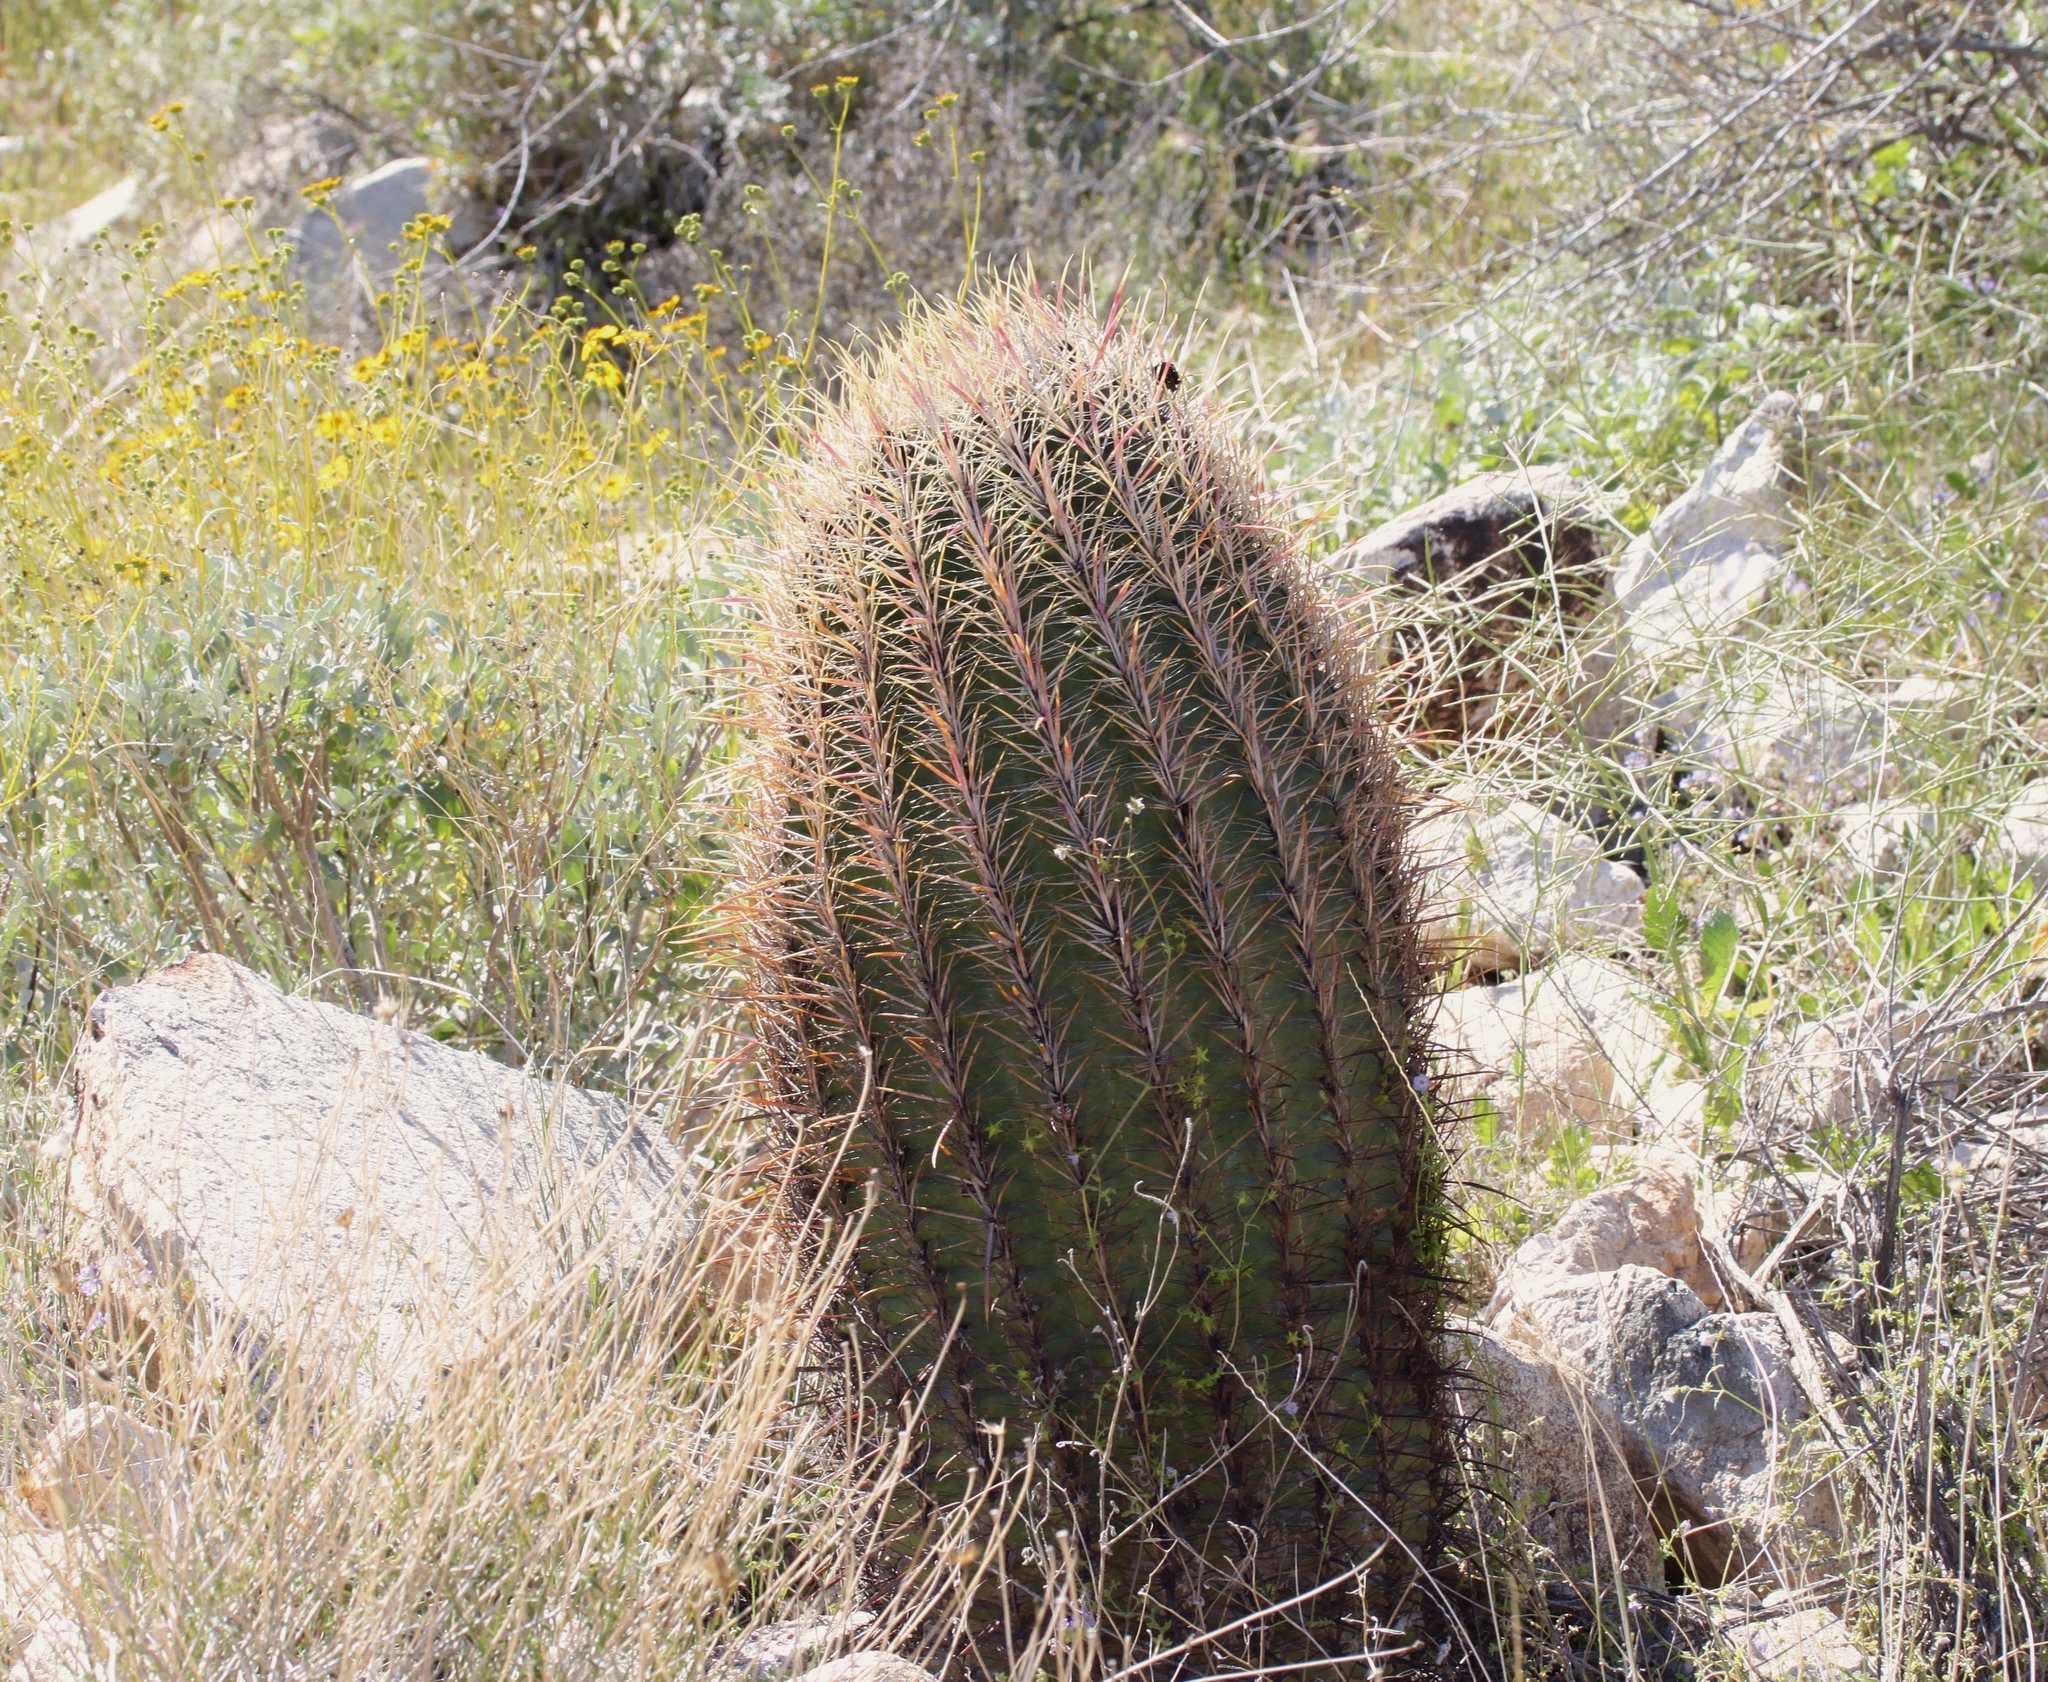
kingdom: Plantae
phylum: Tracheophyta
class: Magnoliopsida
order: Caryophyllales
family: Cactaceae
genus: Ferocactus
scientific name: Ferocactus cylindraceus
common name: California barrel cactus
